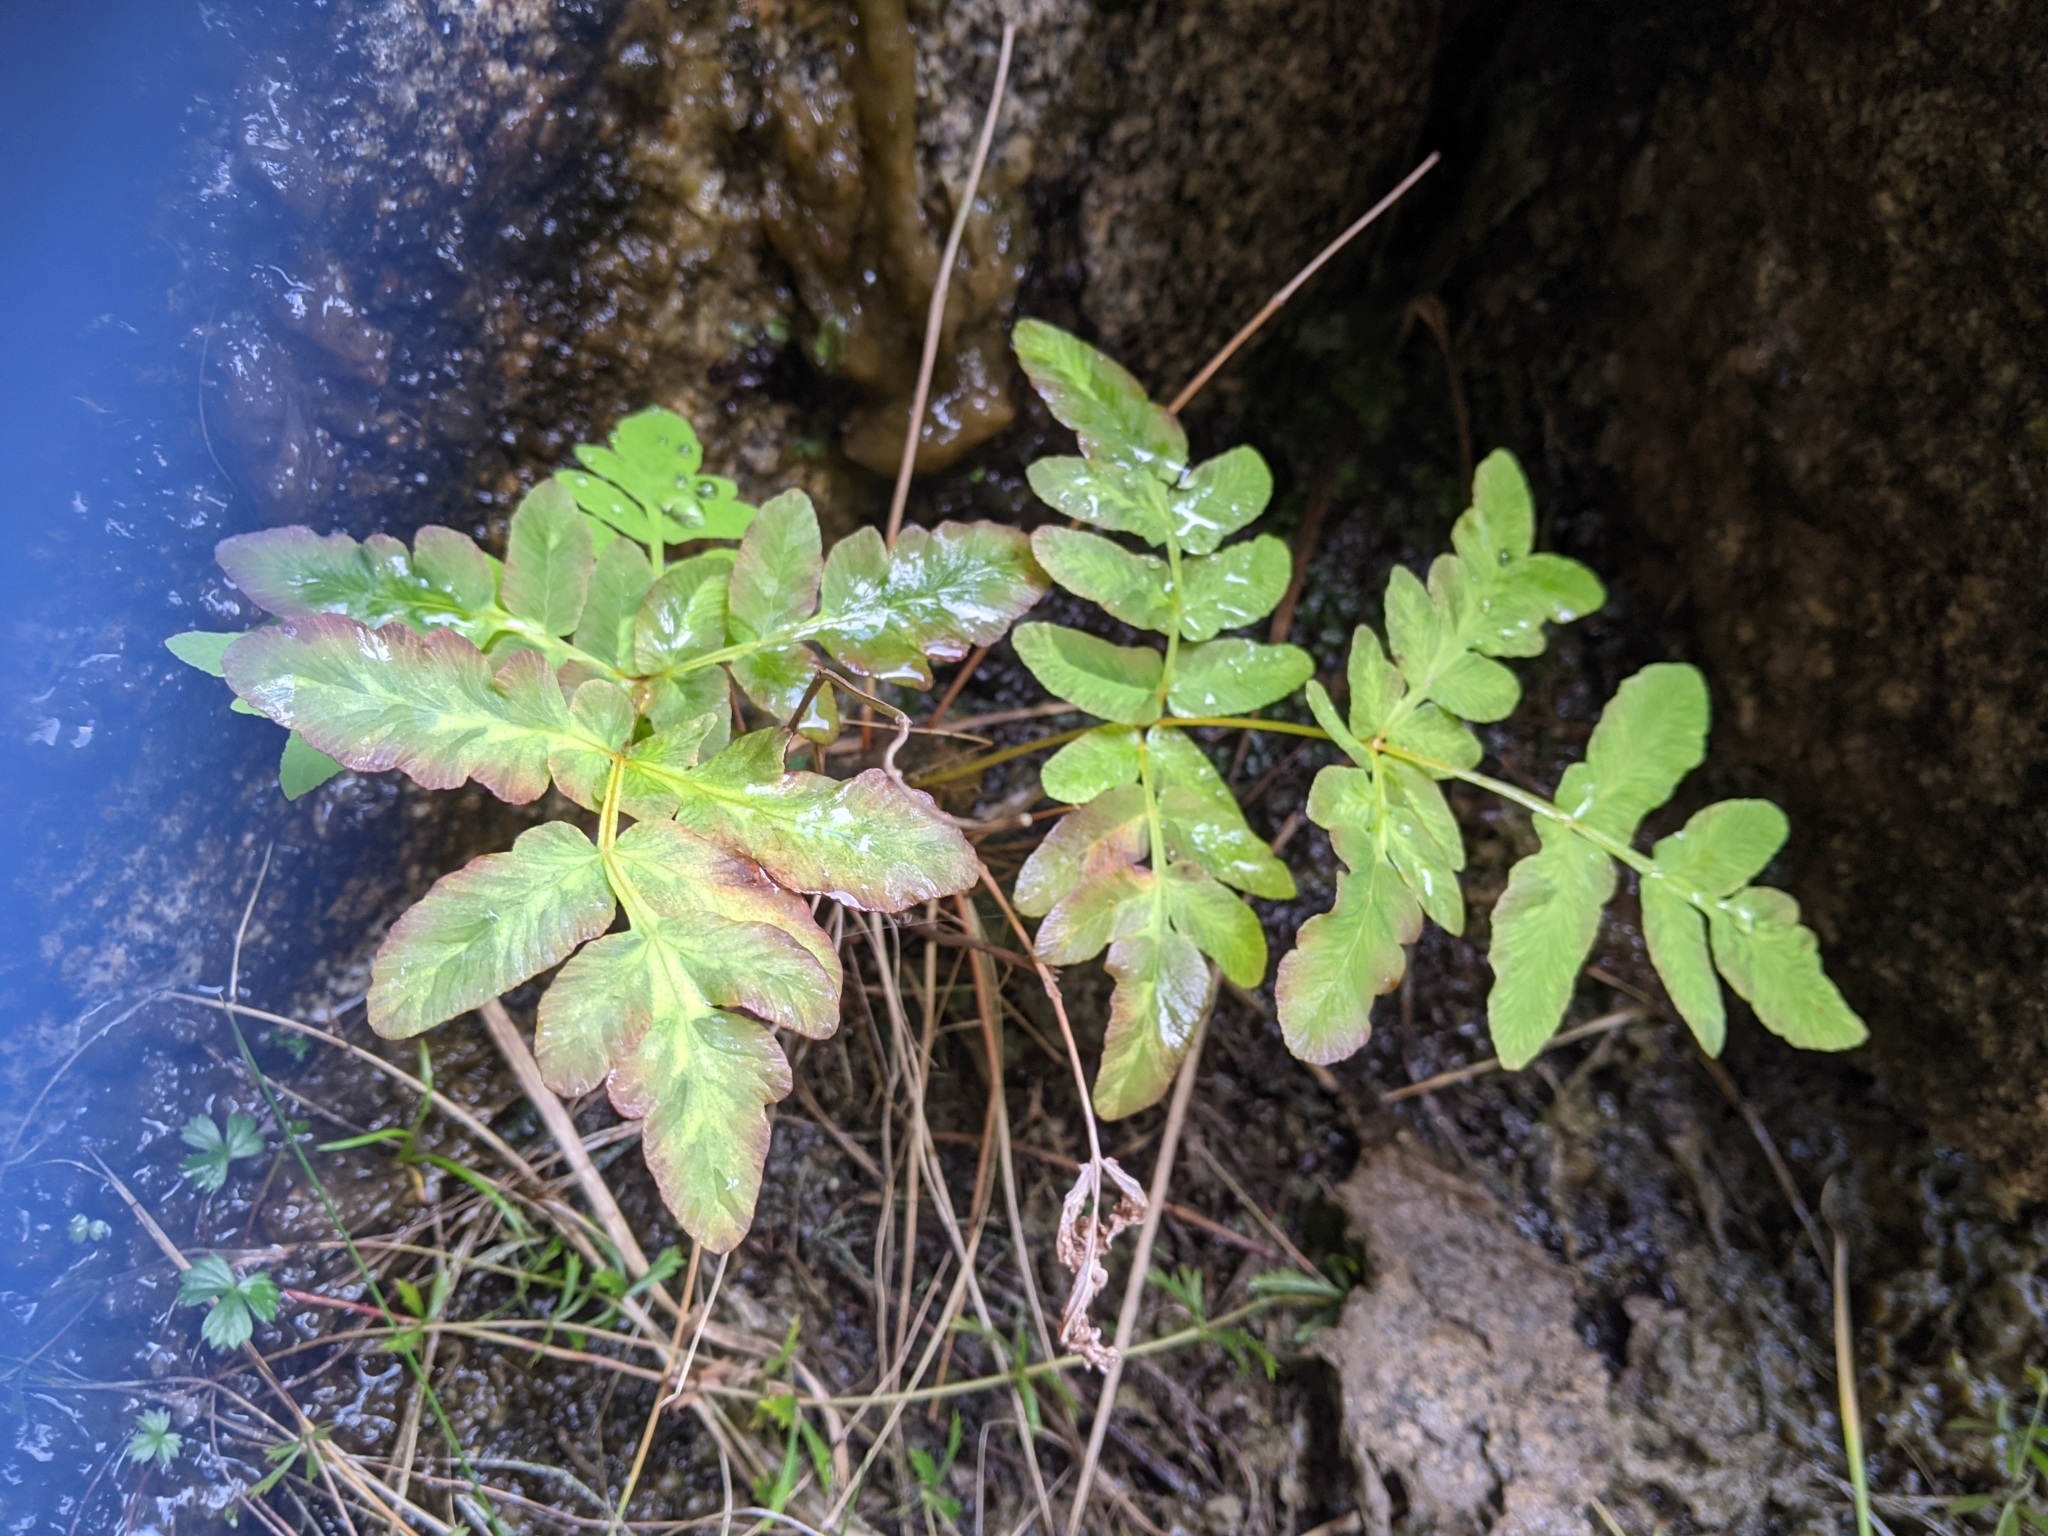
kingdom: Plantae
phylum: Tracheophyta
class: Polypodiopsida
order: Osmundales
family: Osmundaceae
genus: Osmunda
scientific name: Osmunda regalis
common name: Royal fern
